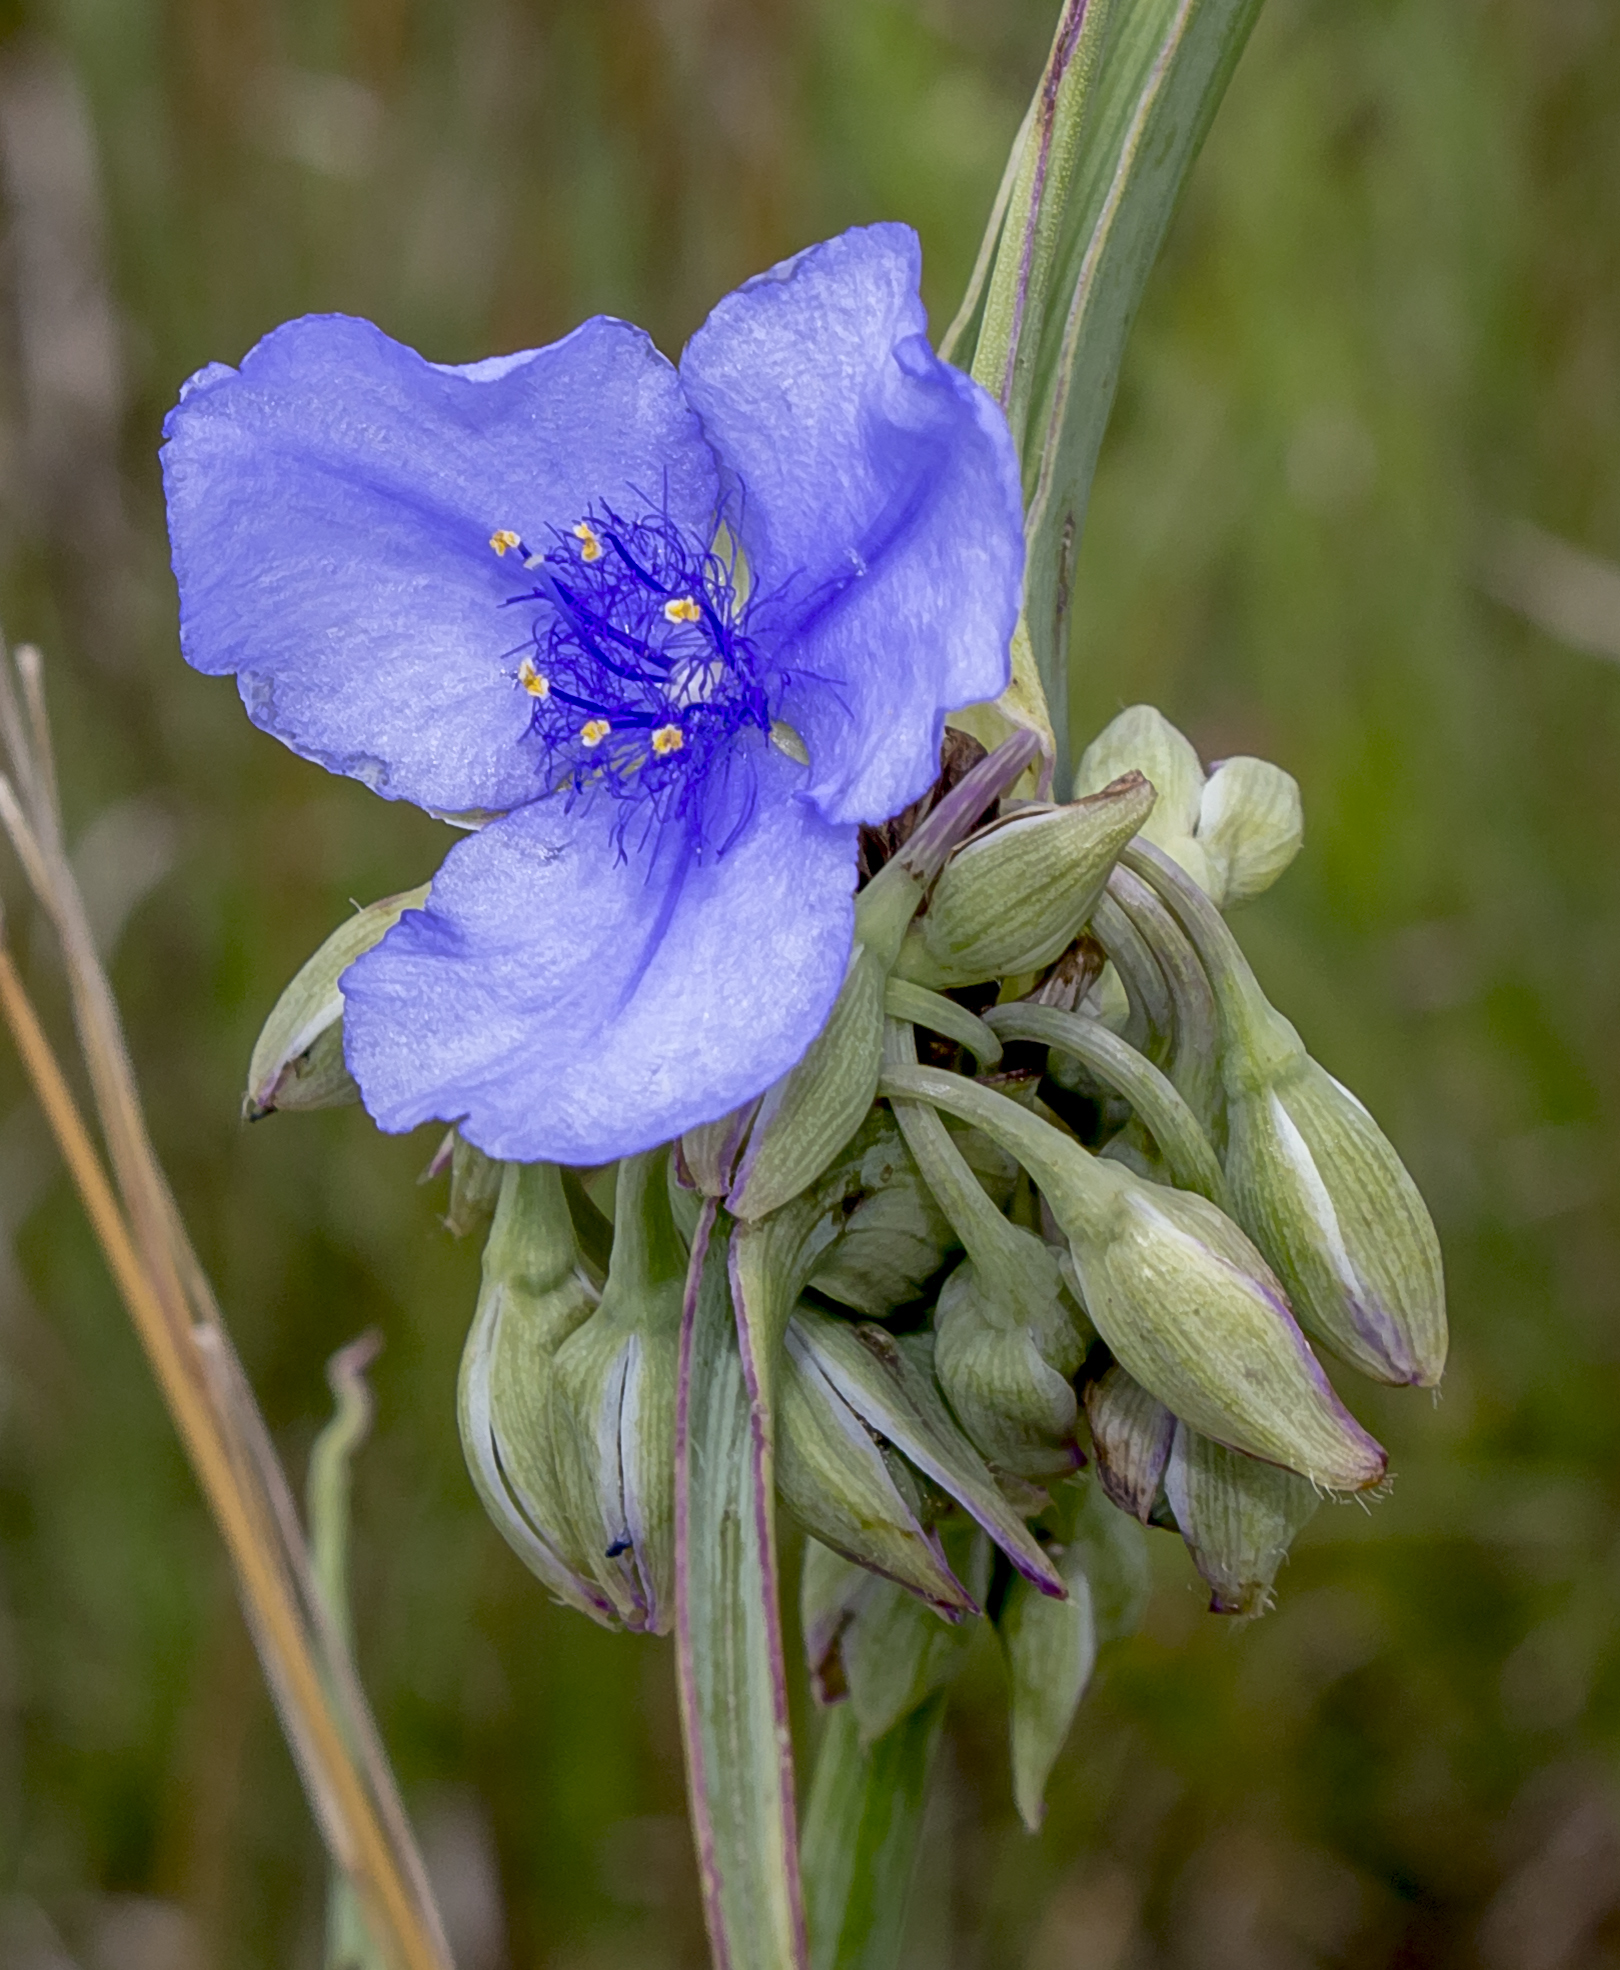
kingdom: Plantae
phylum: Tracheophyta
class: Liliopsida
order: Commelinales
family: Commelinaceae
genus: Tradescantia
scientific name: Tradescantia ohiensis
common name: Ohio spiderwort
